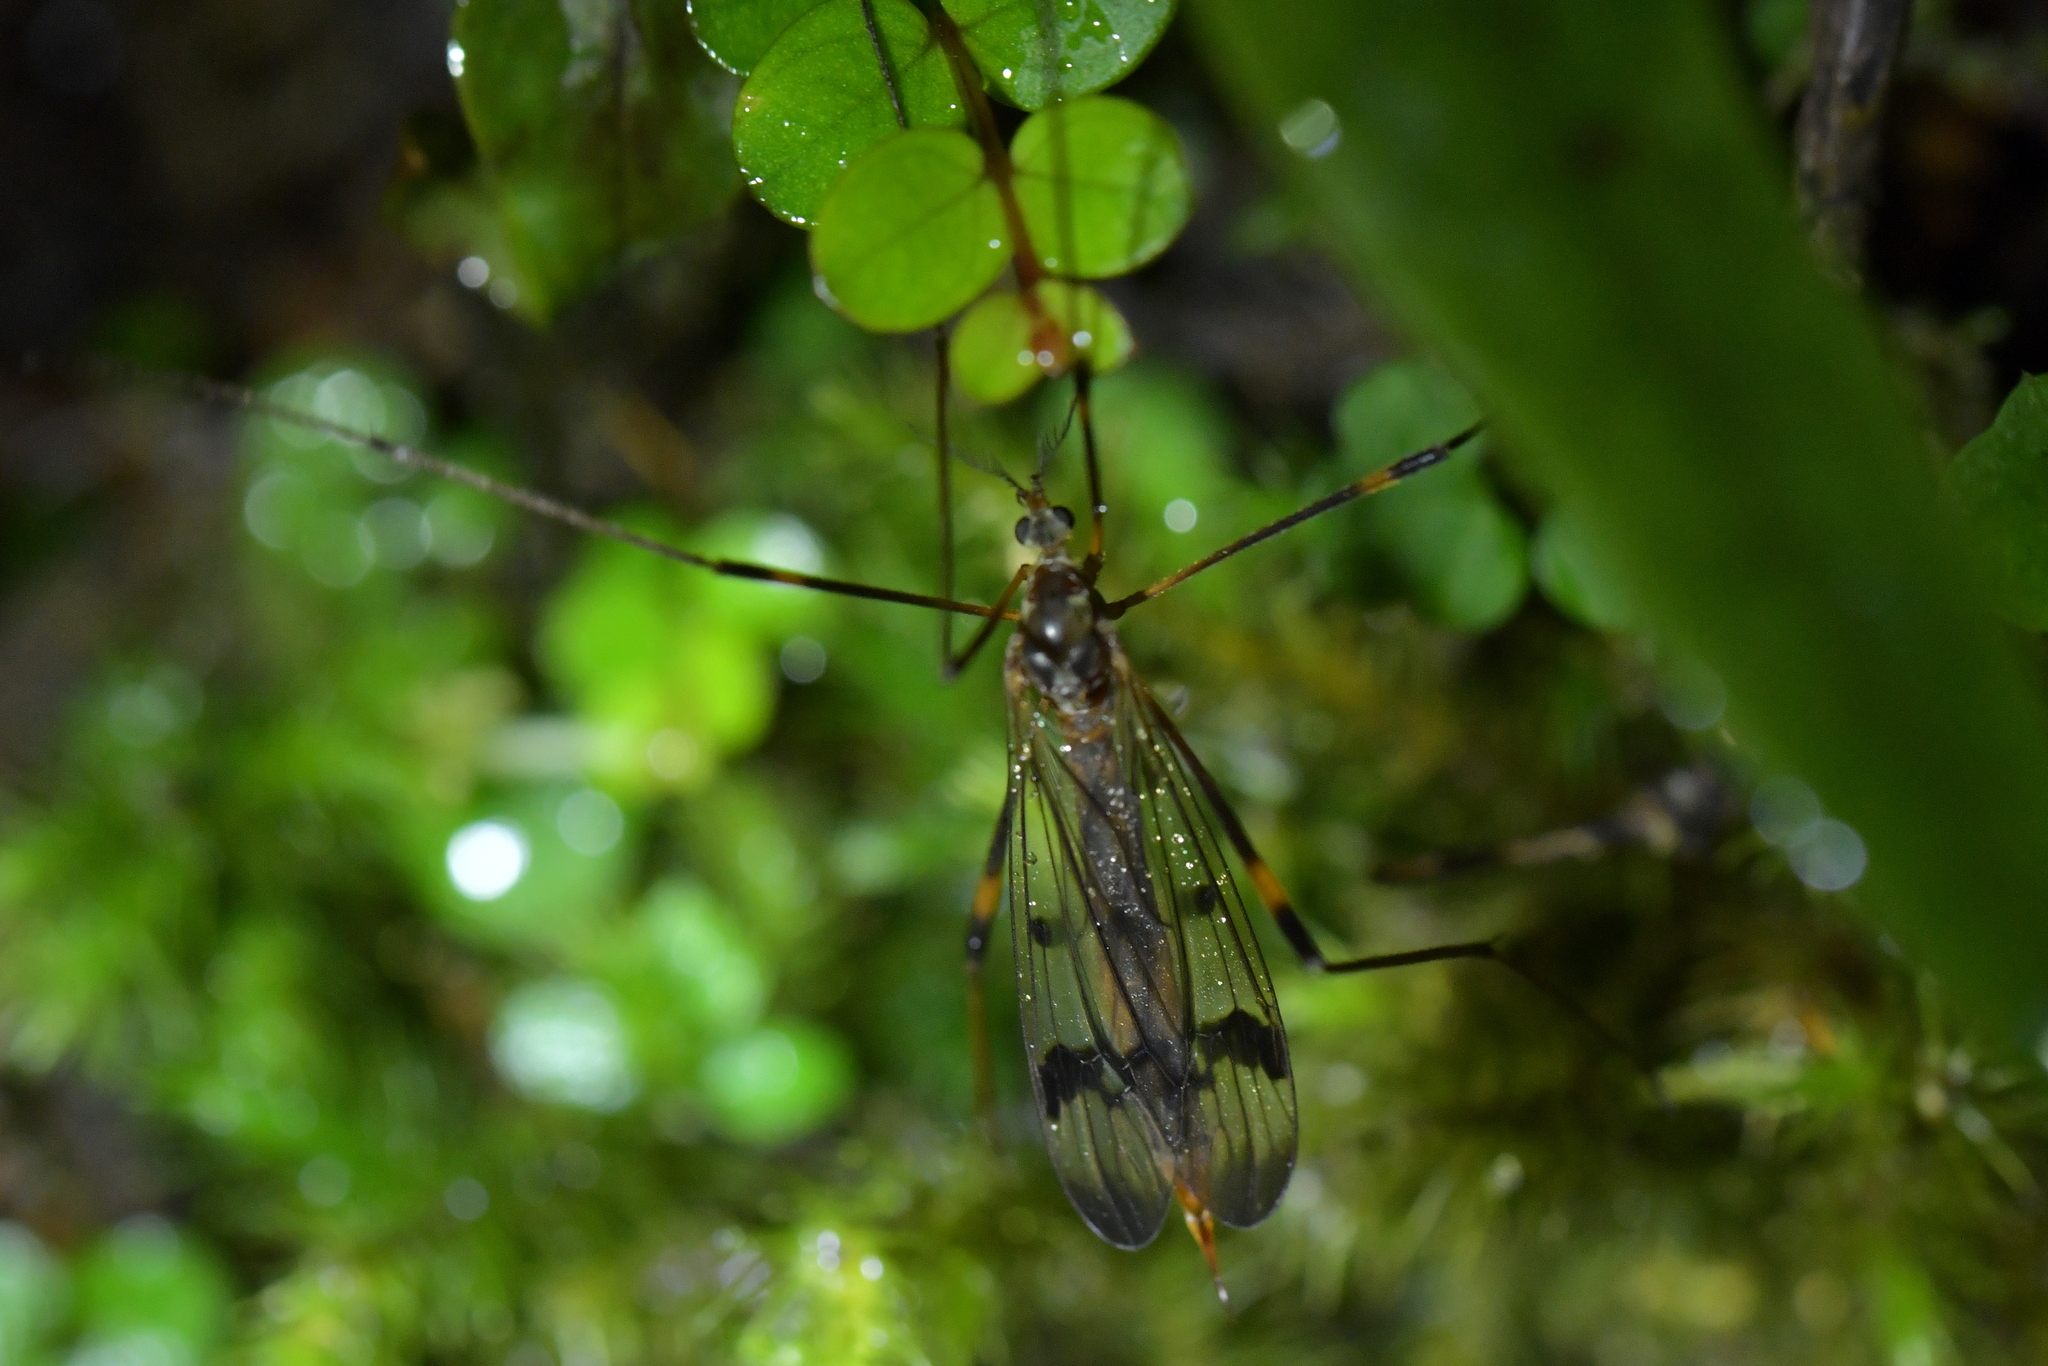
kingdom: Animalia
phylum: Arthropoda
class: Insecta
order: Diptera
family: Limoniidae
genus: Gynoplistia
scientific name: Gynoplistia fimbriata
